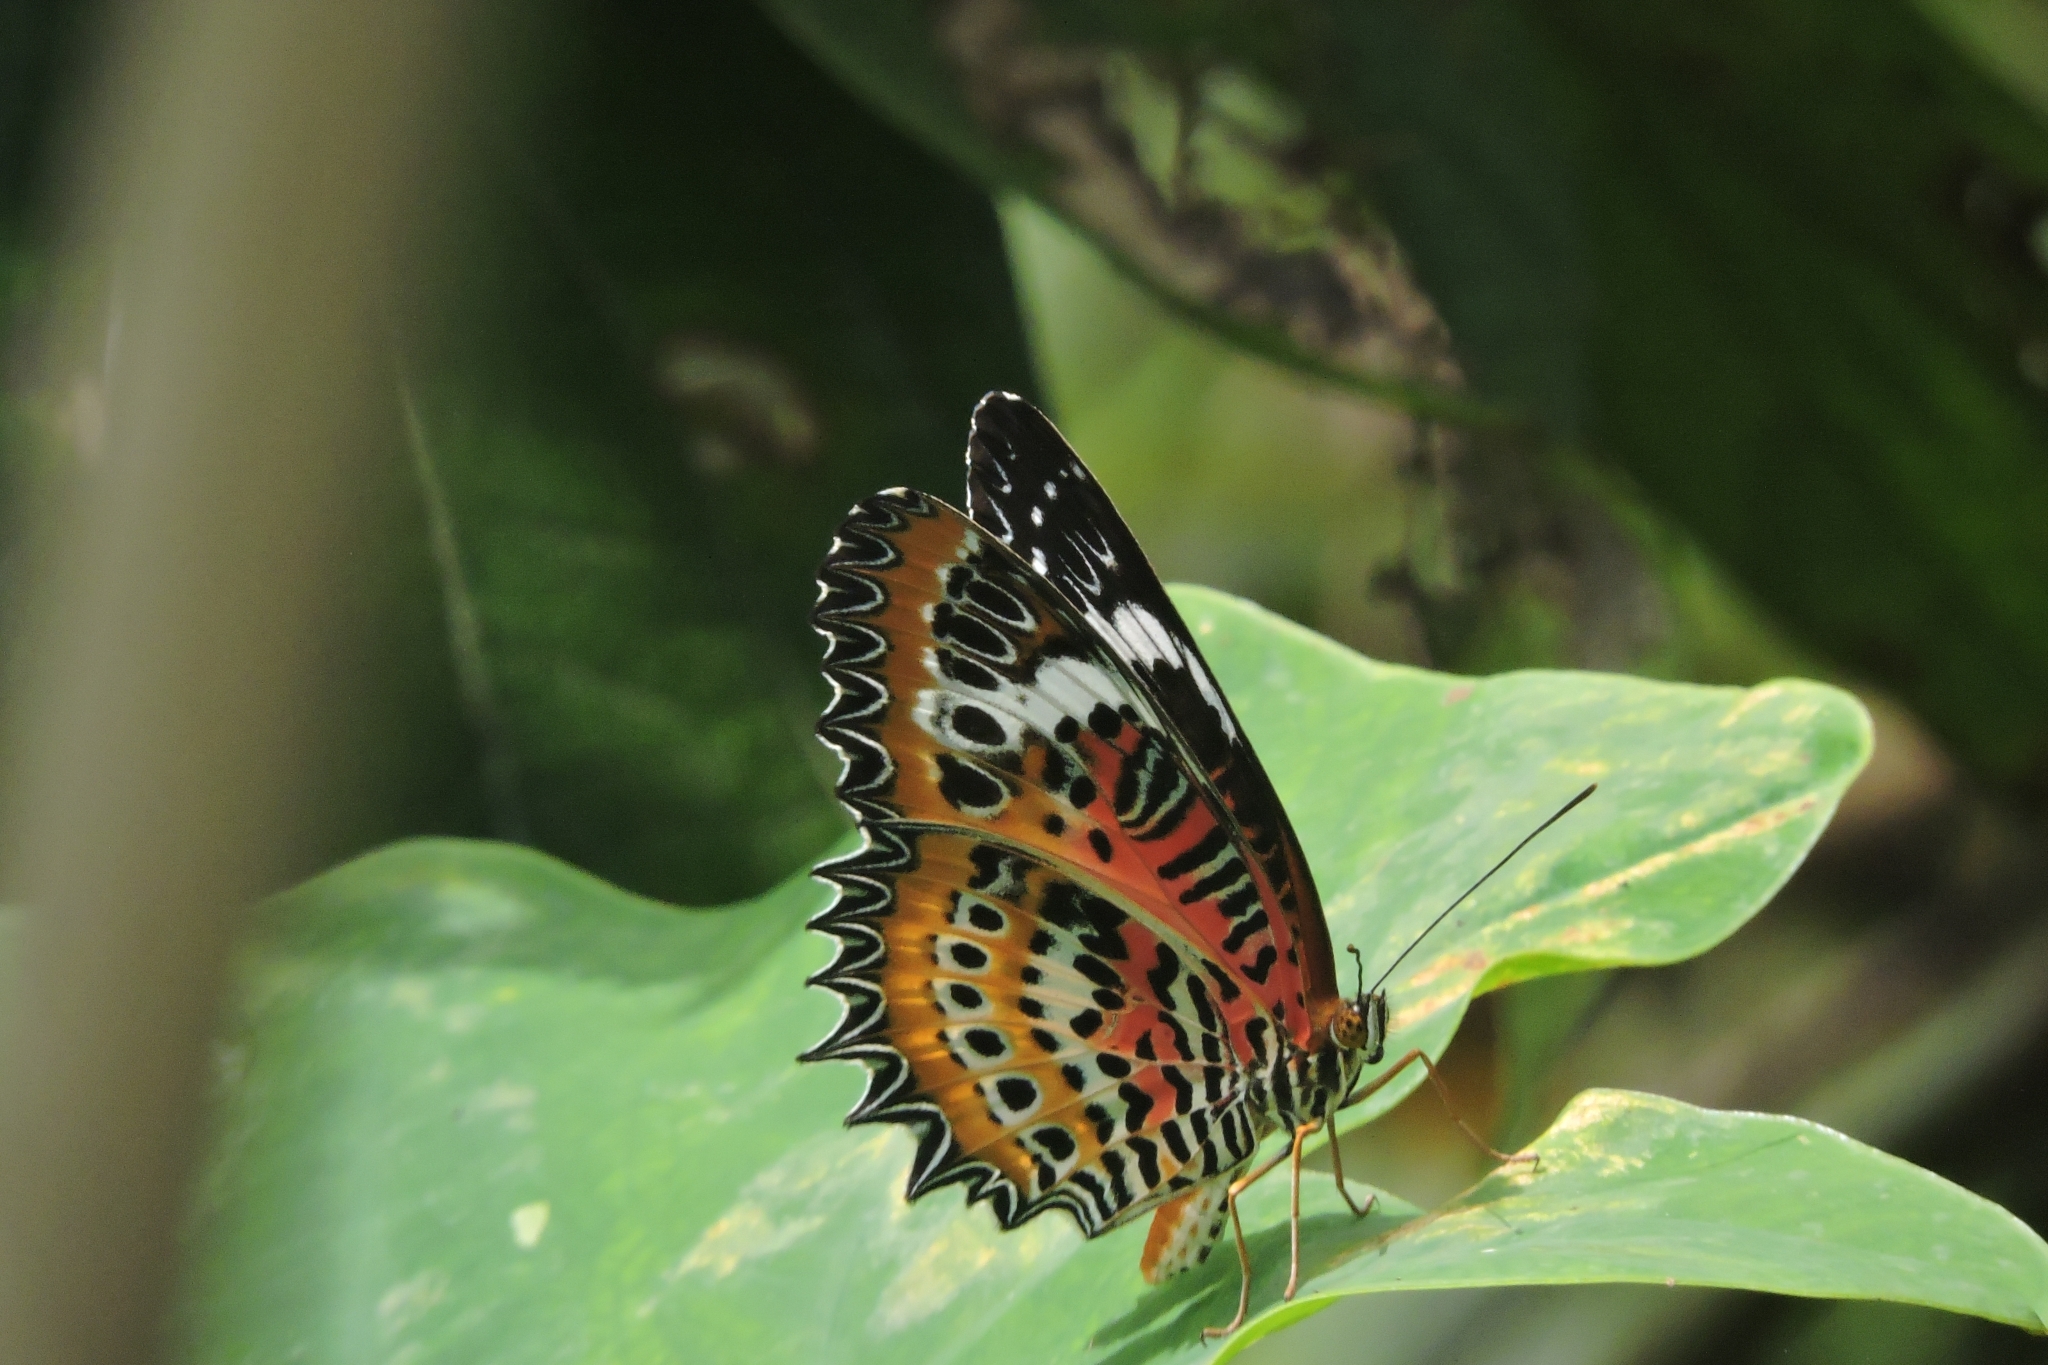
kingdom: Animalia
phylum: Arthropoda
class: Insecta
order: Lepidoptera
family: Nymphalidae
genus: Cethosia
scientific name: Cethosia
